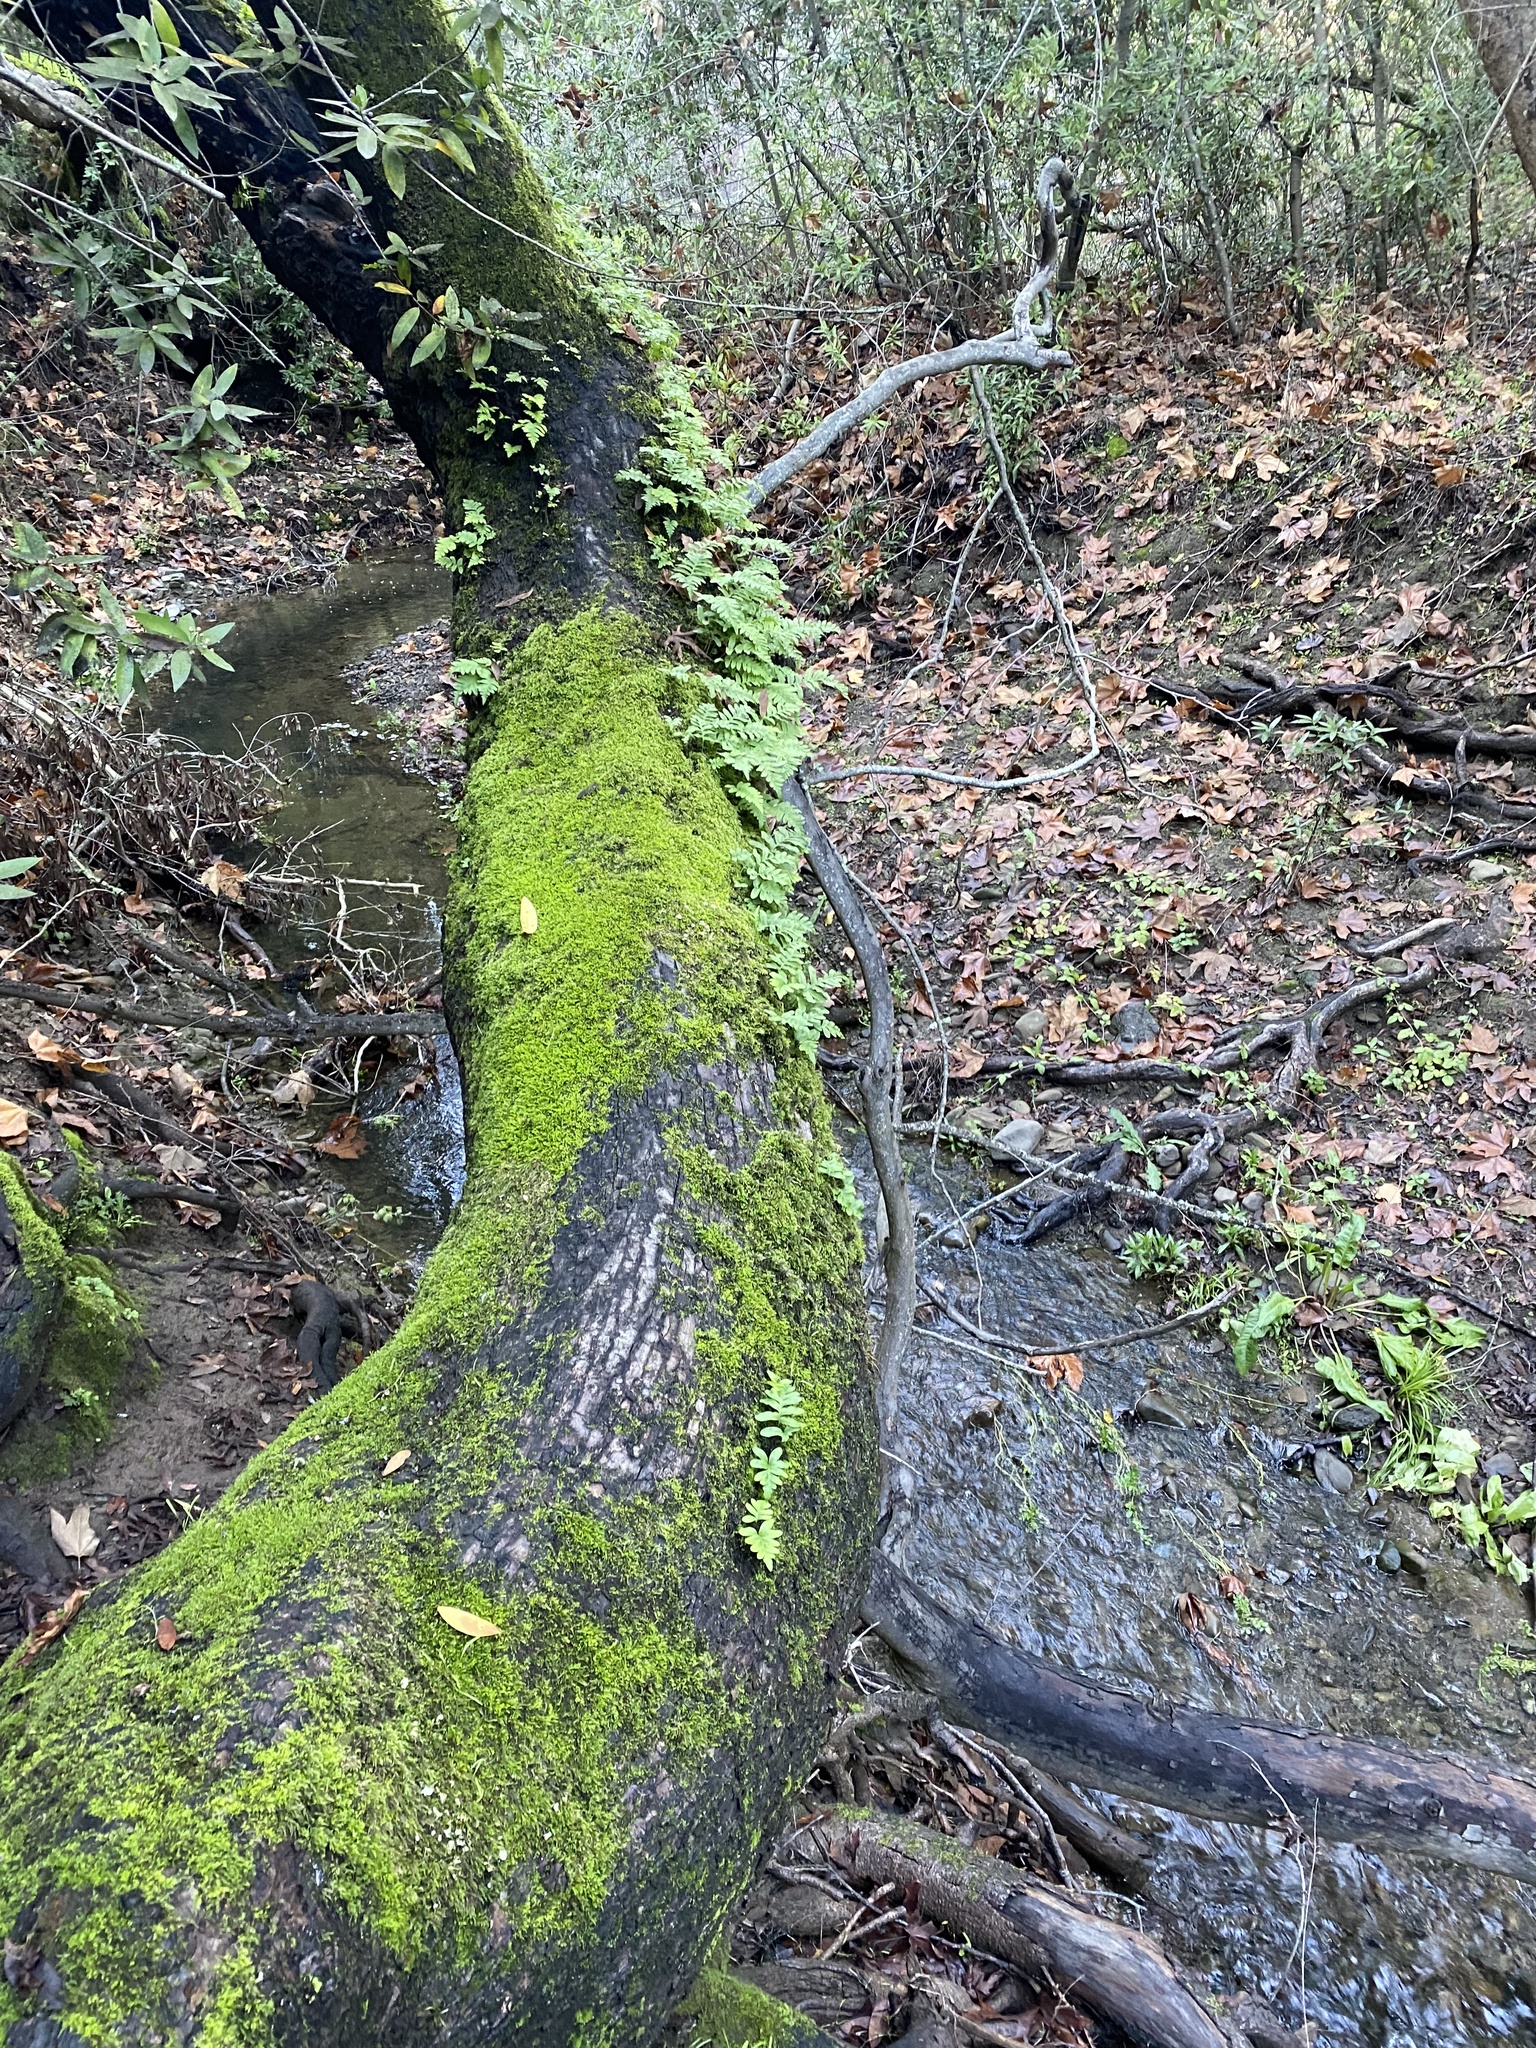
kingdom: Plantae
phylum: Tracheophyta
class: Polypodiopsida
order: Polypodiales
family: Polypodiaceae
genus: Polypodium
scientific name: Polypodium californicum
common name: California polypody
